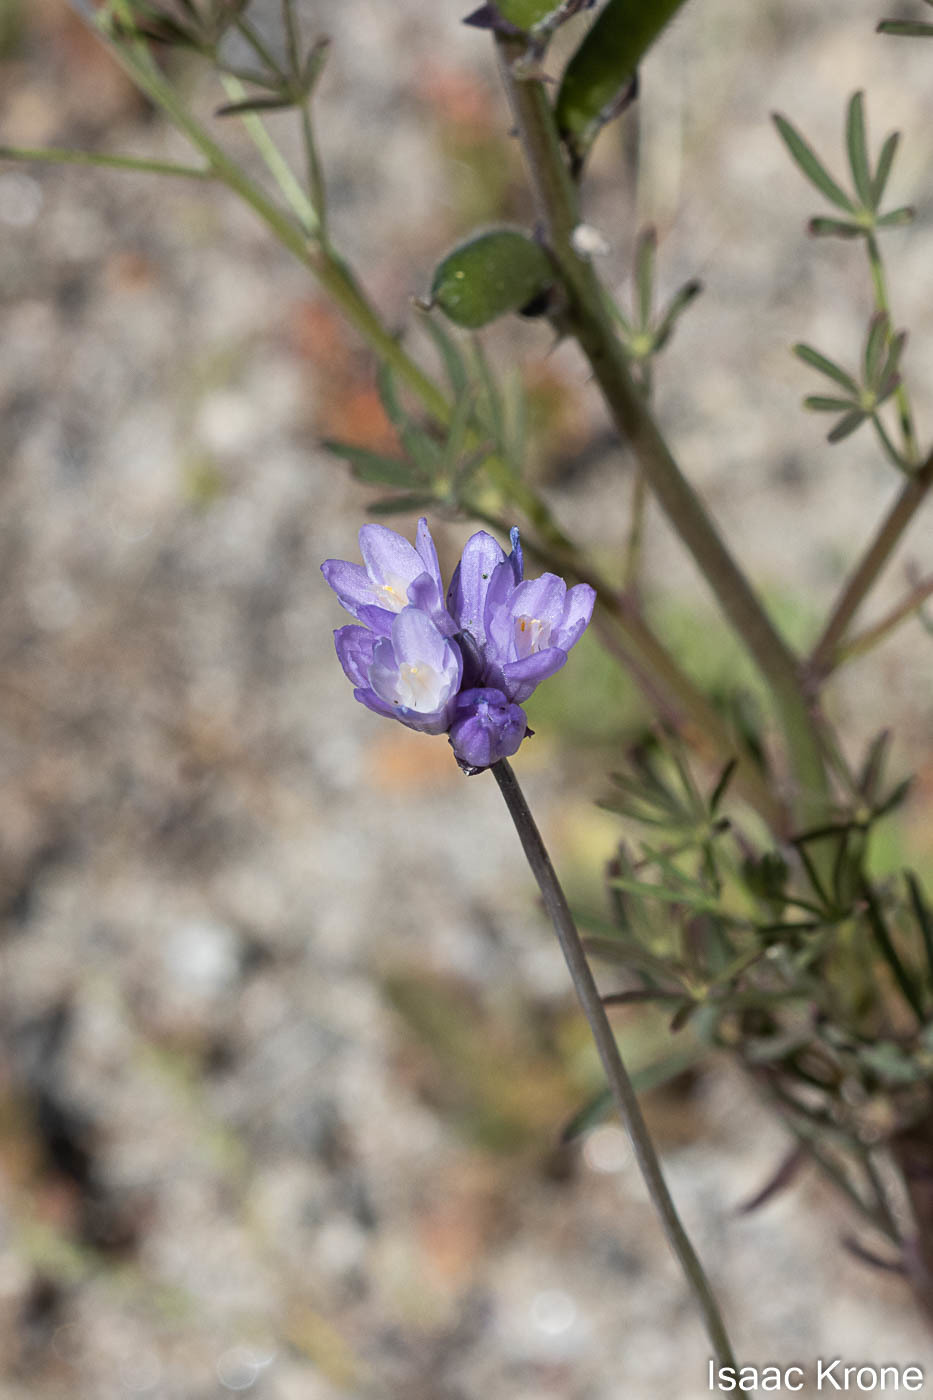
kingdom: Plantae
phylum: Tracheophyta
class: Liliopsida
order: Asparagales
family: Asparagaceae
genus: Dipterostemon
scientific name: Dipterostemon capitatus
